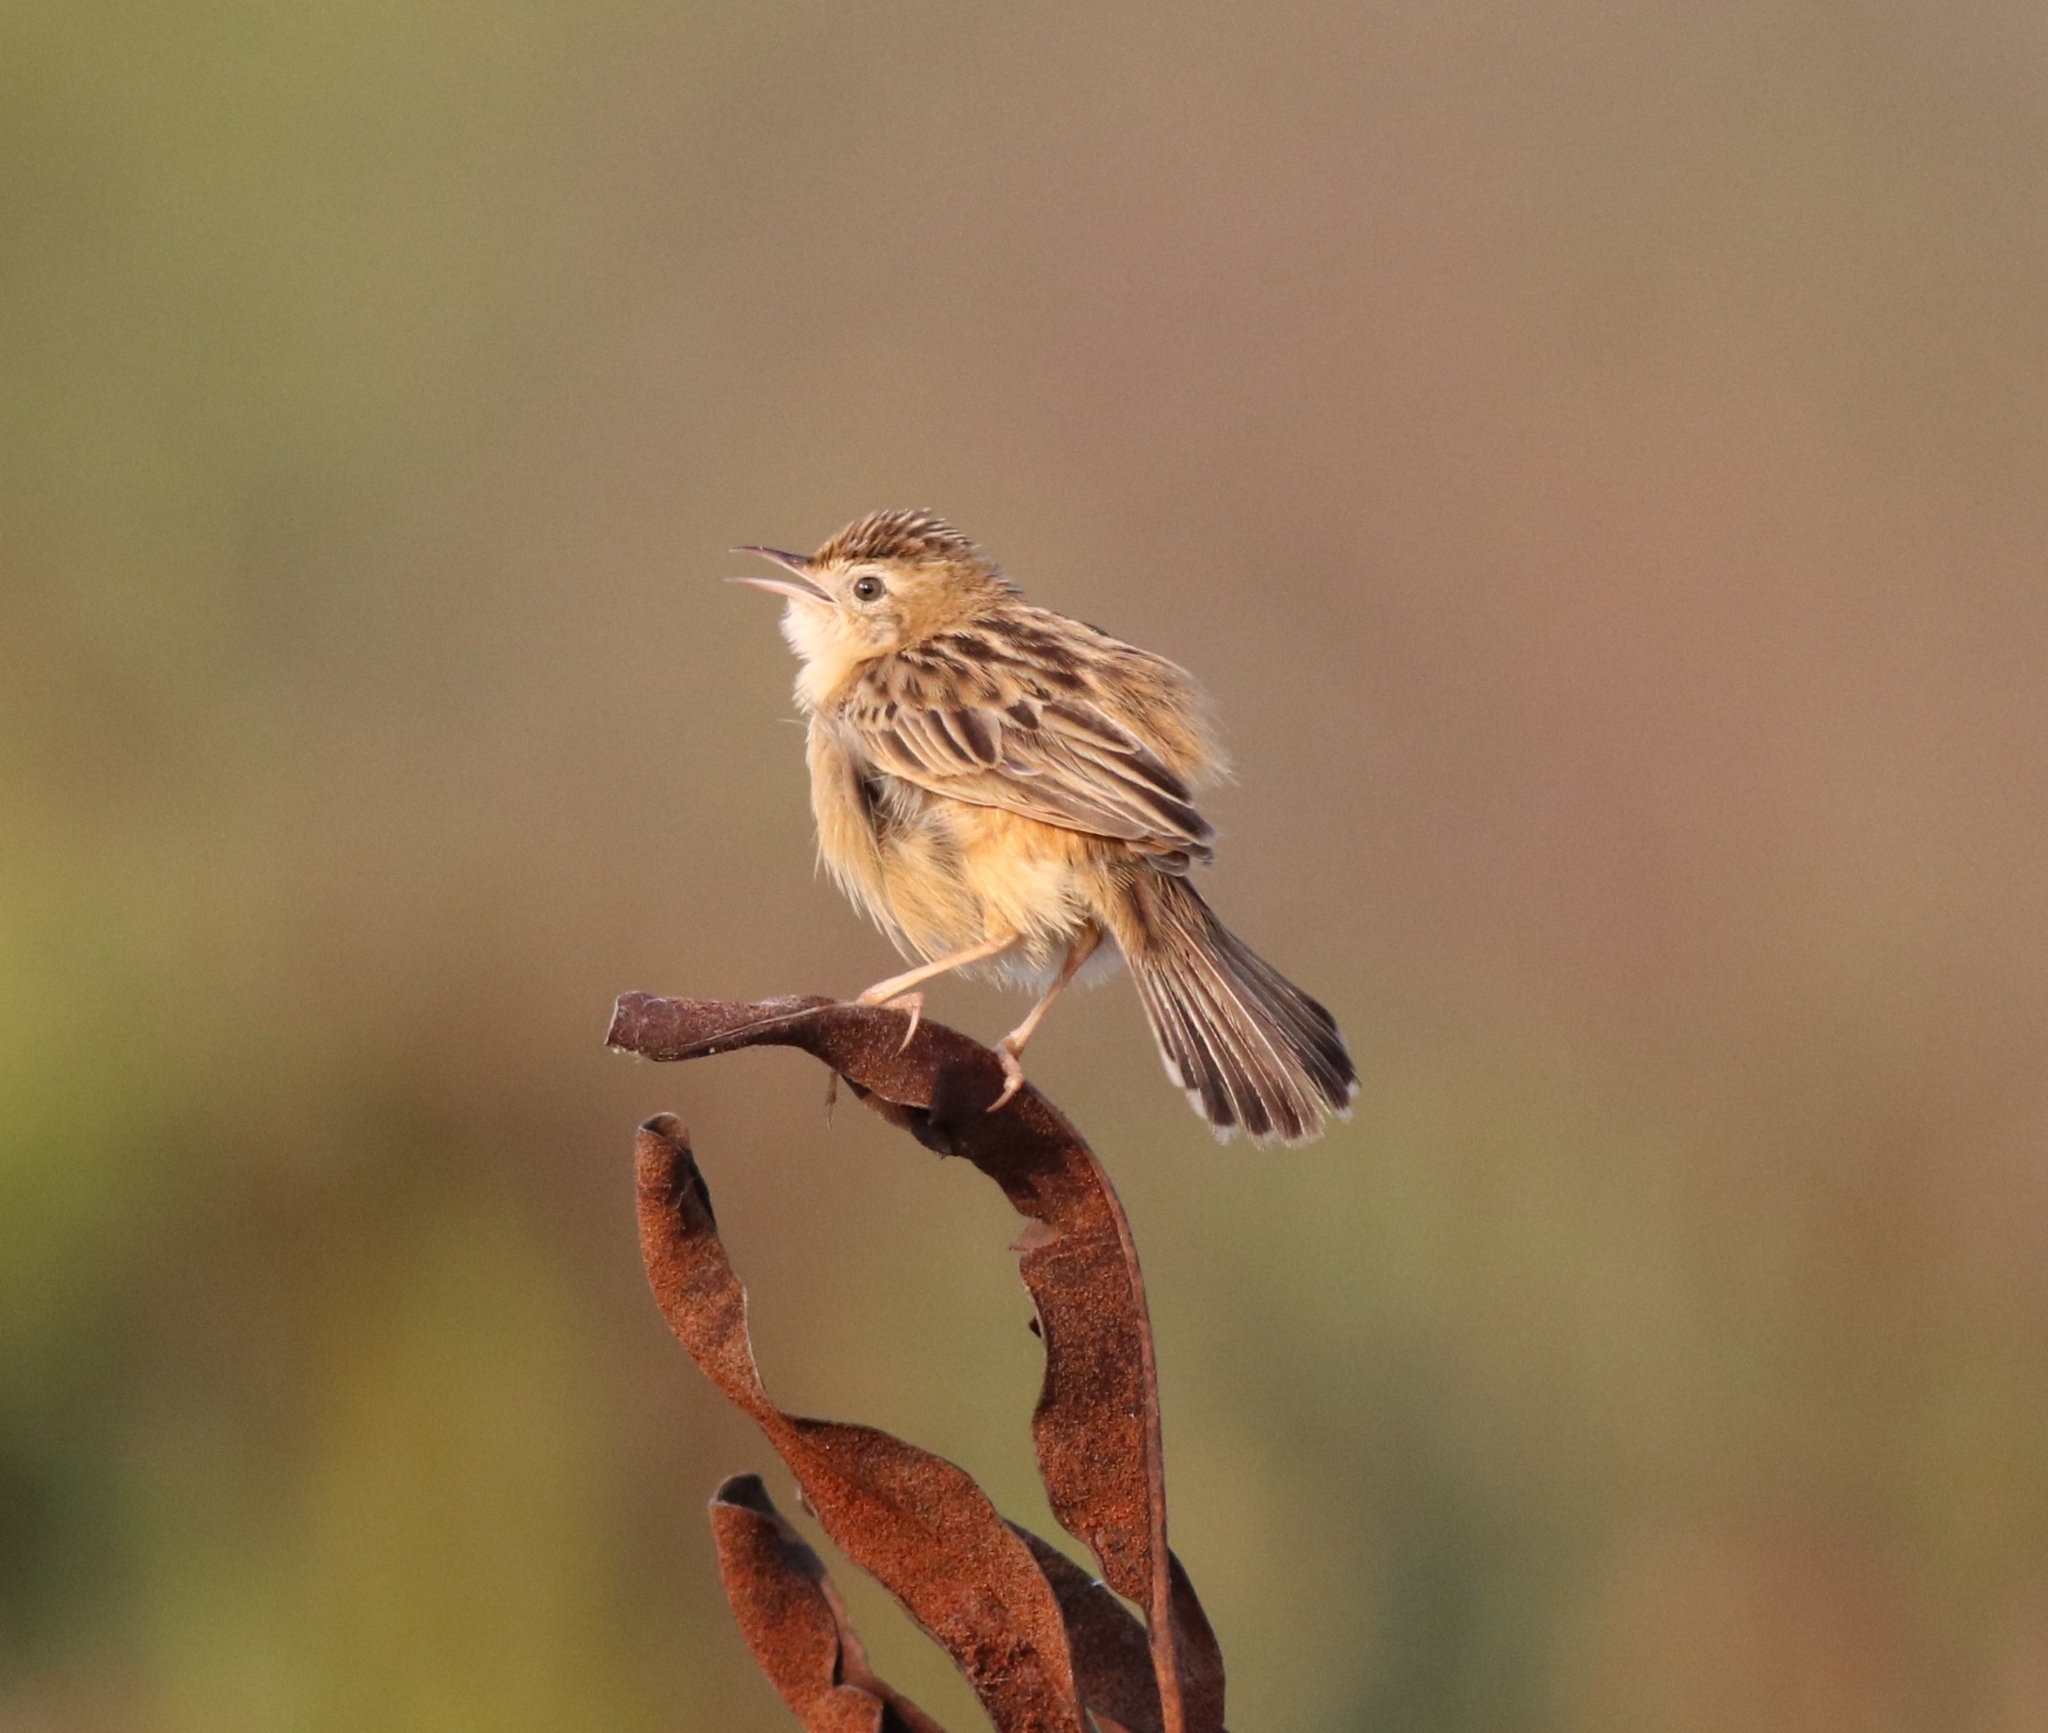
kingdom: Animalia
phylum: Chordata
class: Aves
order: Passeriformes
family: Cisticolidae
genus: Cisticola
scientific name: Cisticola juncidis
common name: Zitting cisticola
